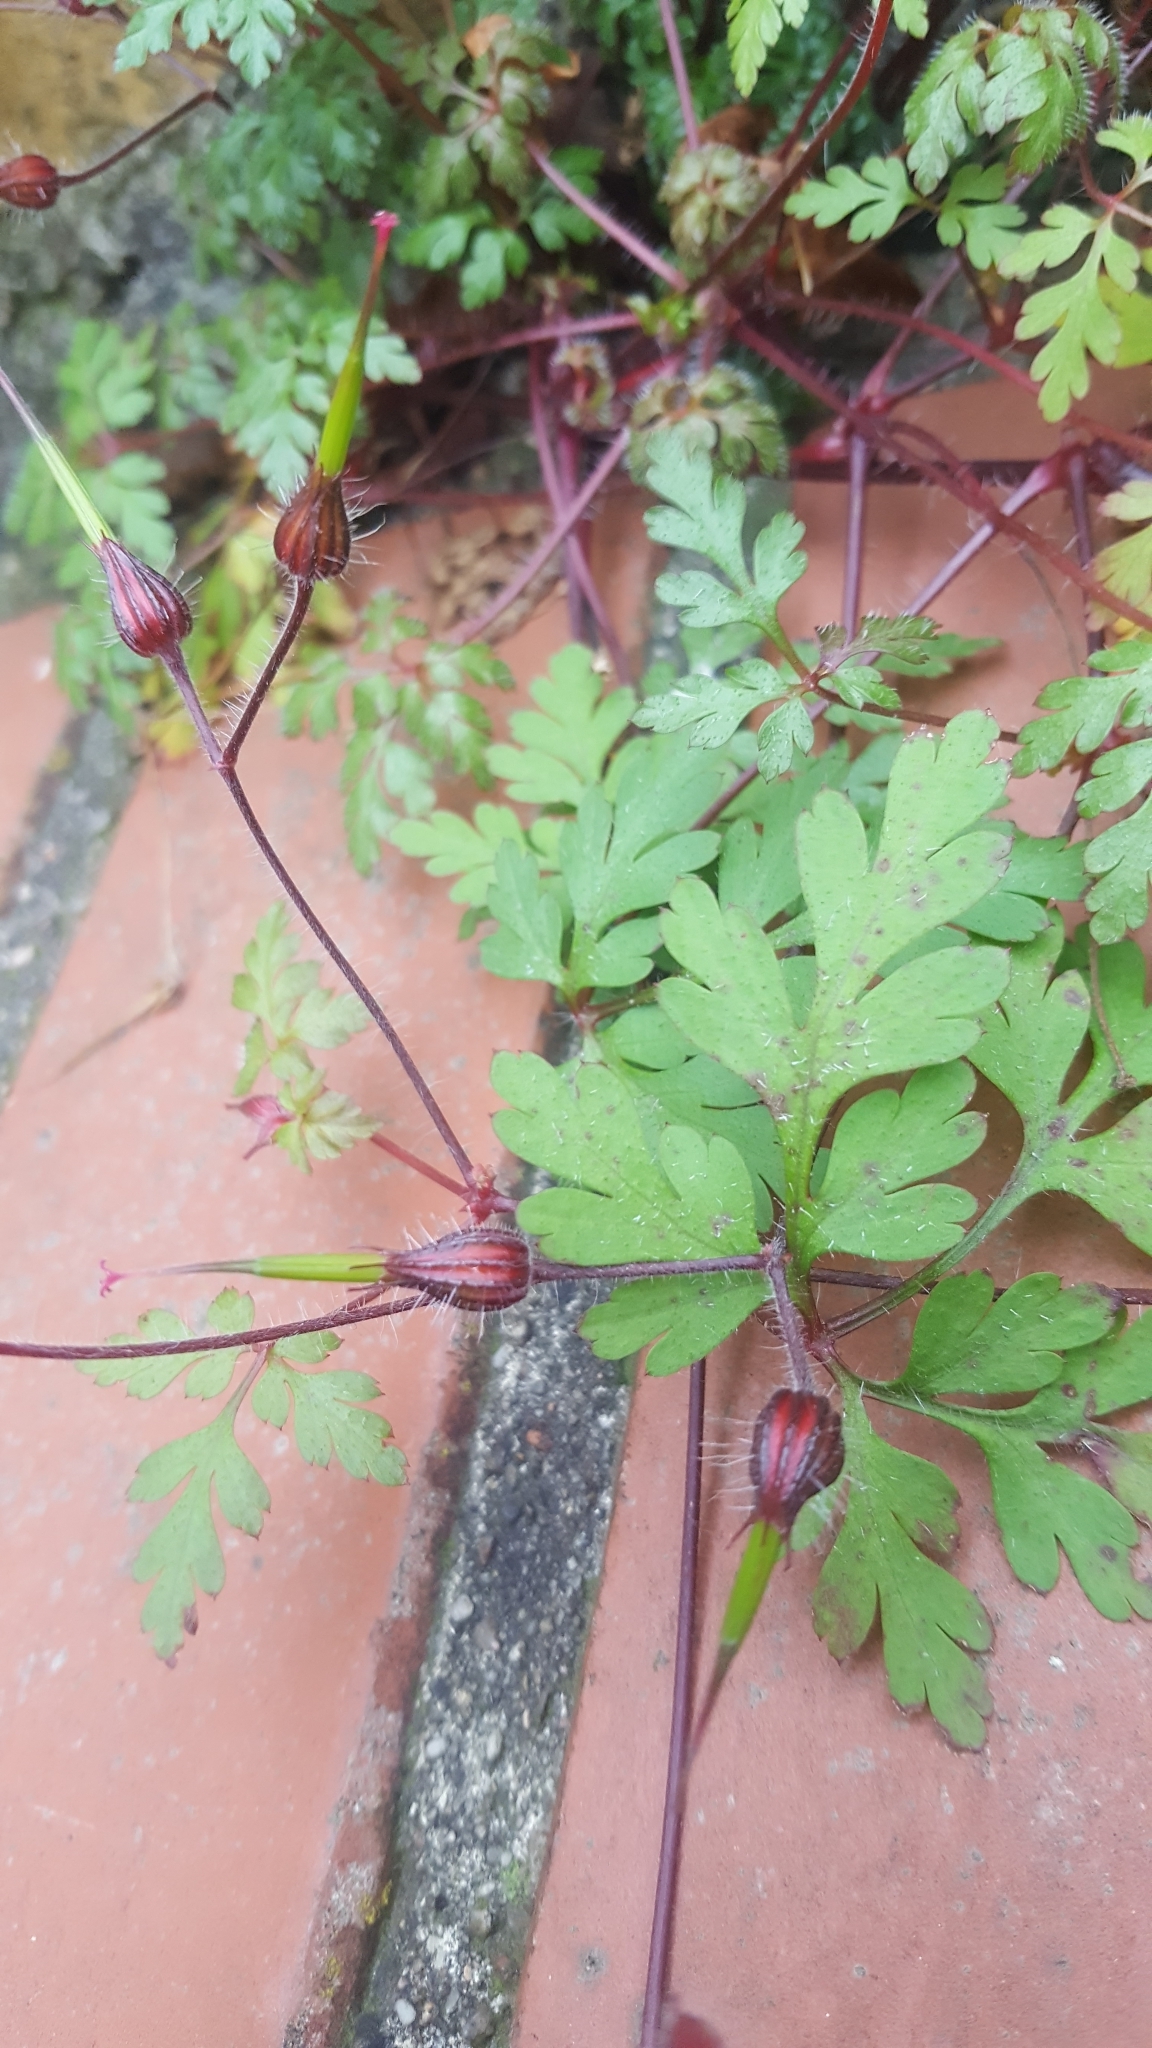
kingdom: Plantae
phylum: Tracheophyta
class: Magnoliopsida
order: Geraniales
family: Geraniaceae
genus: Geranium
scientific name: Geranium robertianum
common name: Herb-robert
